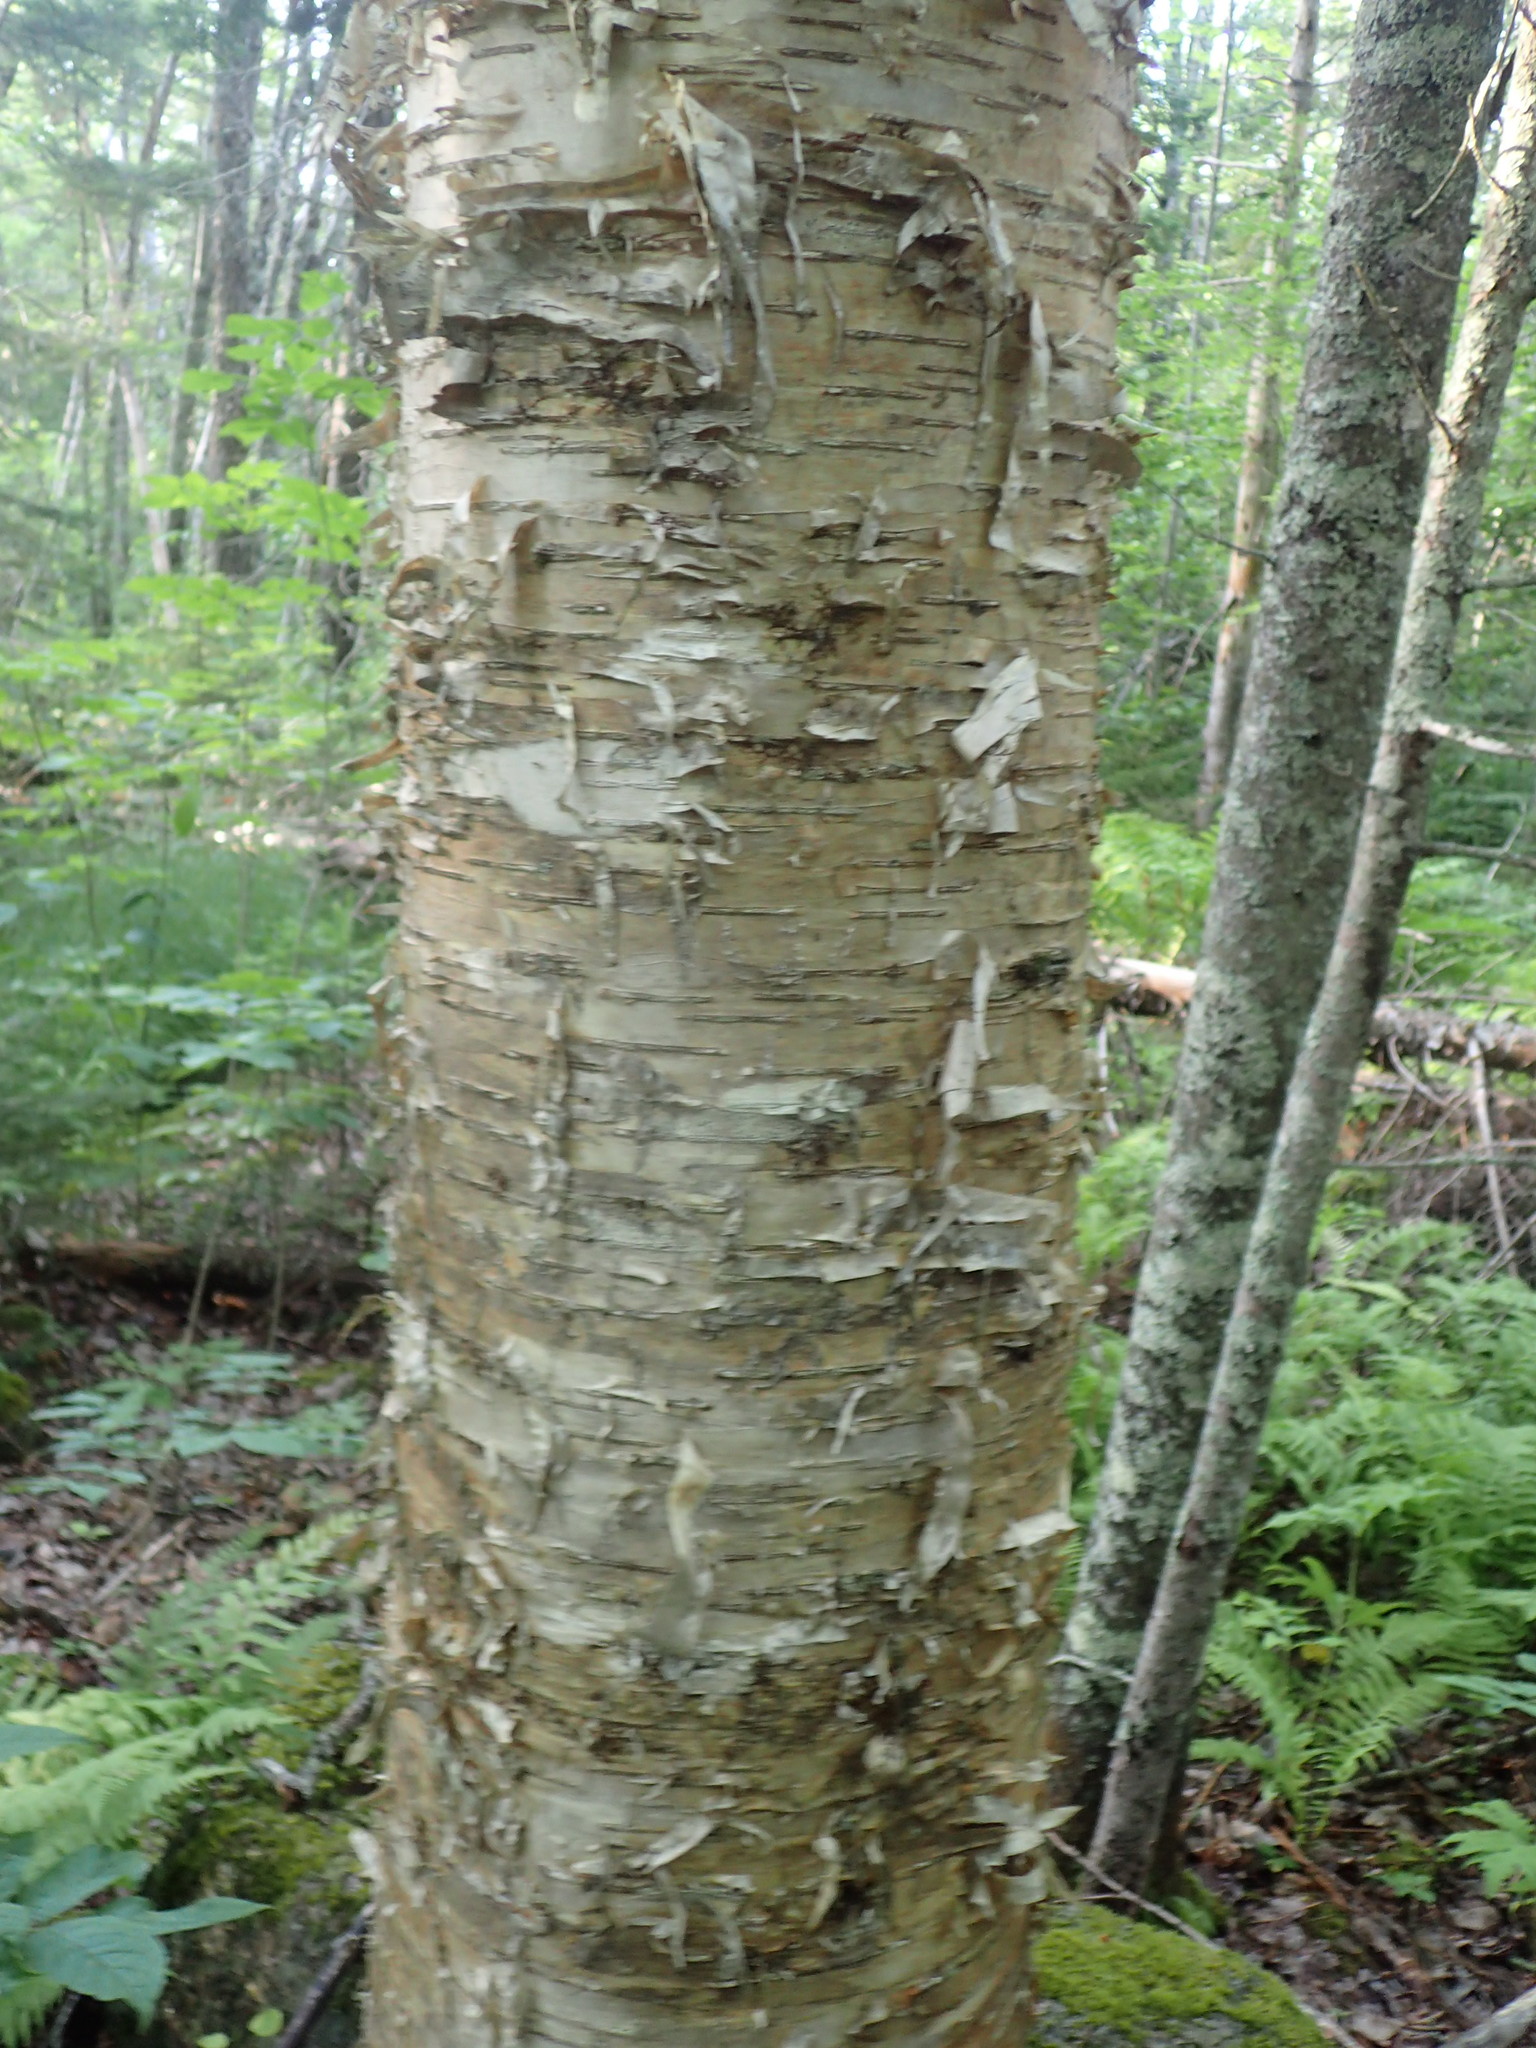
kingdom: Plantae
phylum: Tracheophyta
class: Magnoliopsida
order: Fagales
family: Betulaceae
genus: Betula
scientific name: Betula alleghaniensis
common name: Yellow birch
